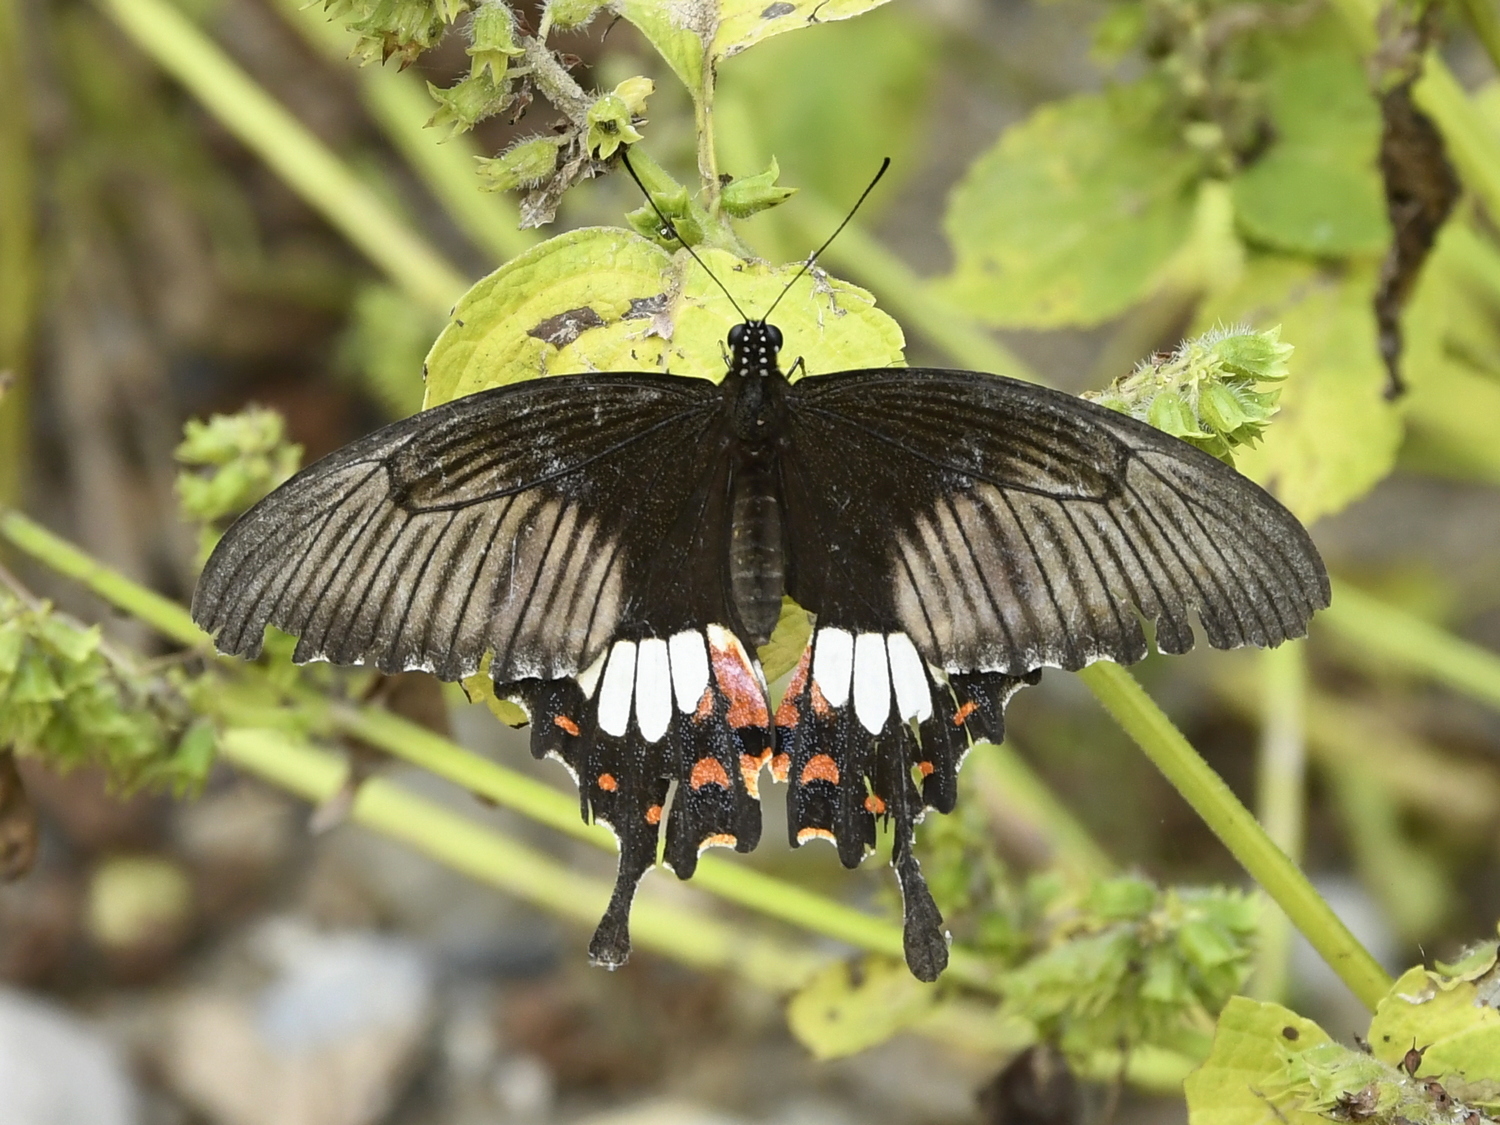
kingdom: Animalia
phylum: Arthropoda
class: Insecta
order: Lepidoptera
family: Papilionidae
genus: Papilio
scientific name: Papilio polytes
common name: Common mormon
